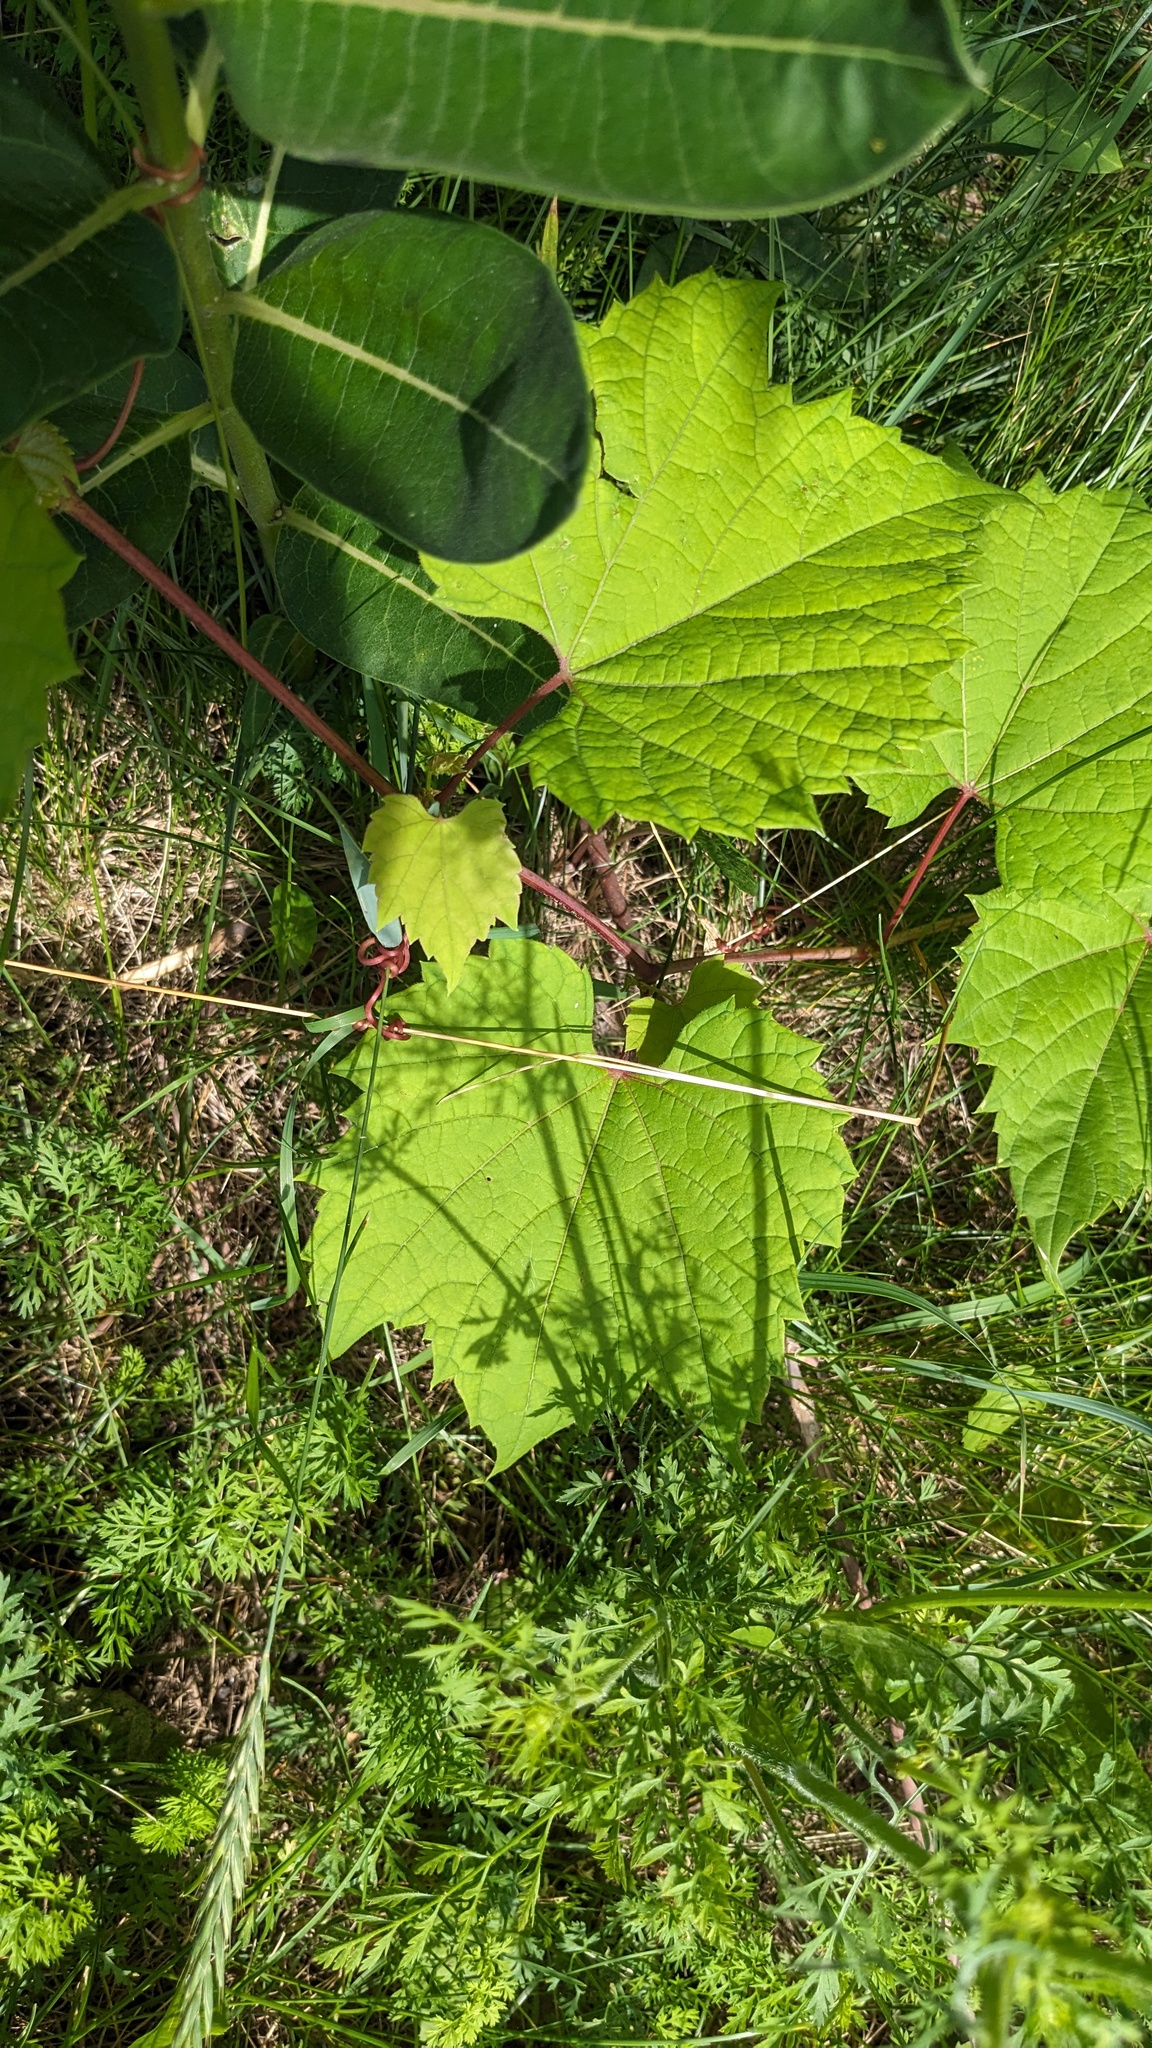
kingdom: Plantae
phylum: Tracheophyta
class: Magnoliopsida
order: Vitales
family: Vitaceae
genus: Vitis
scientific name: Vitis riparia
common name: Frost grape
